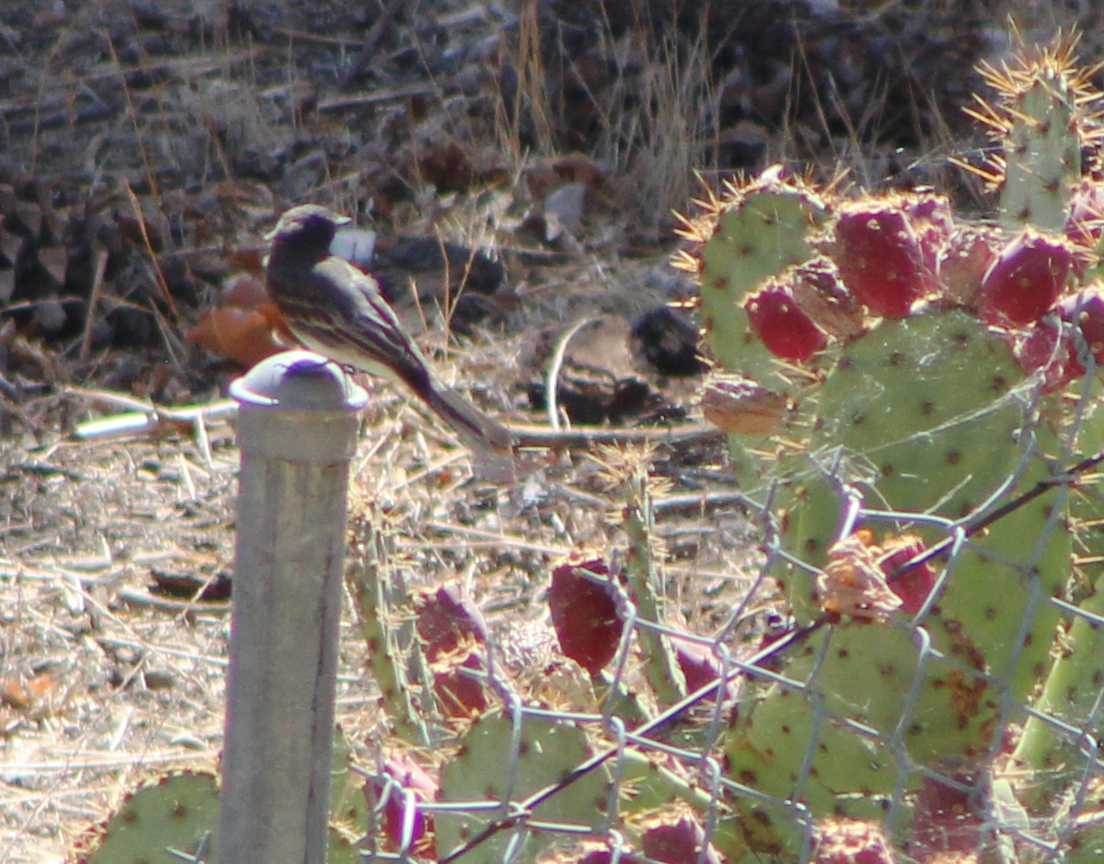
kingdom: Animalia
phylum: Chordata
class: Aves
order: Passeriformes
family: Tyrannidae
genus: Sayornis
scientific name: Sayornis nigricans
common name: Black phoebe
